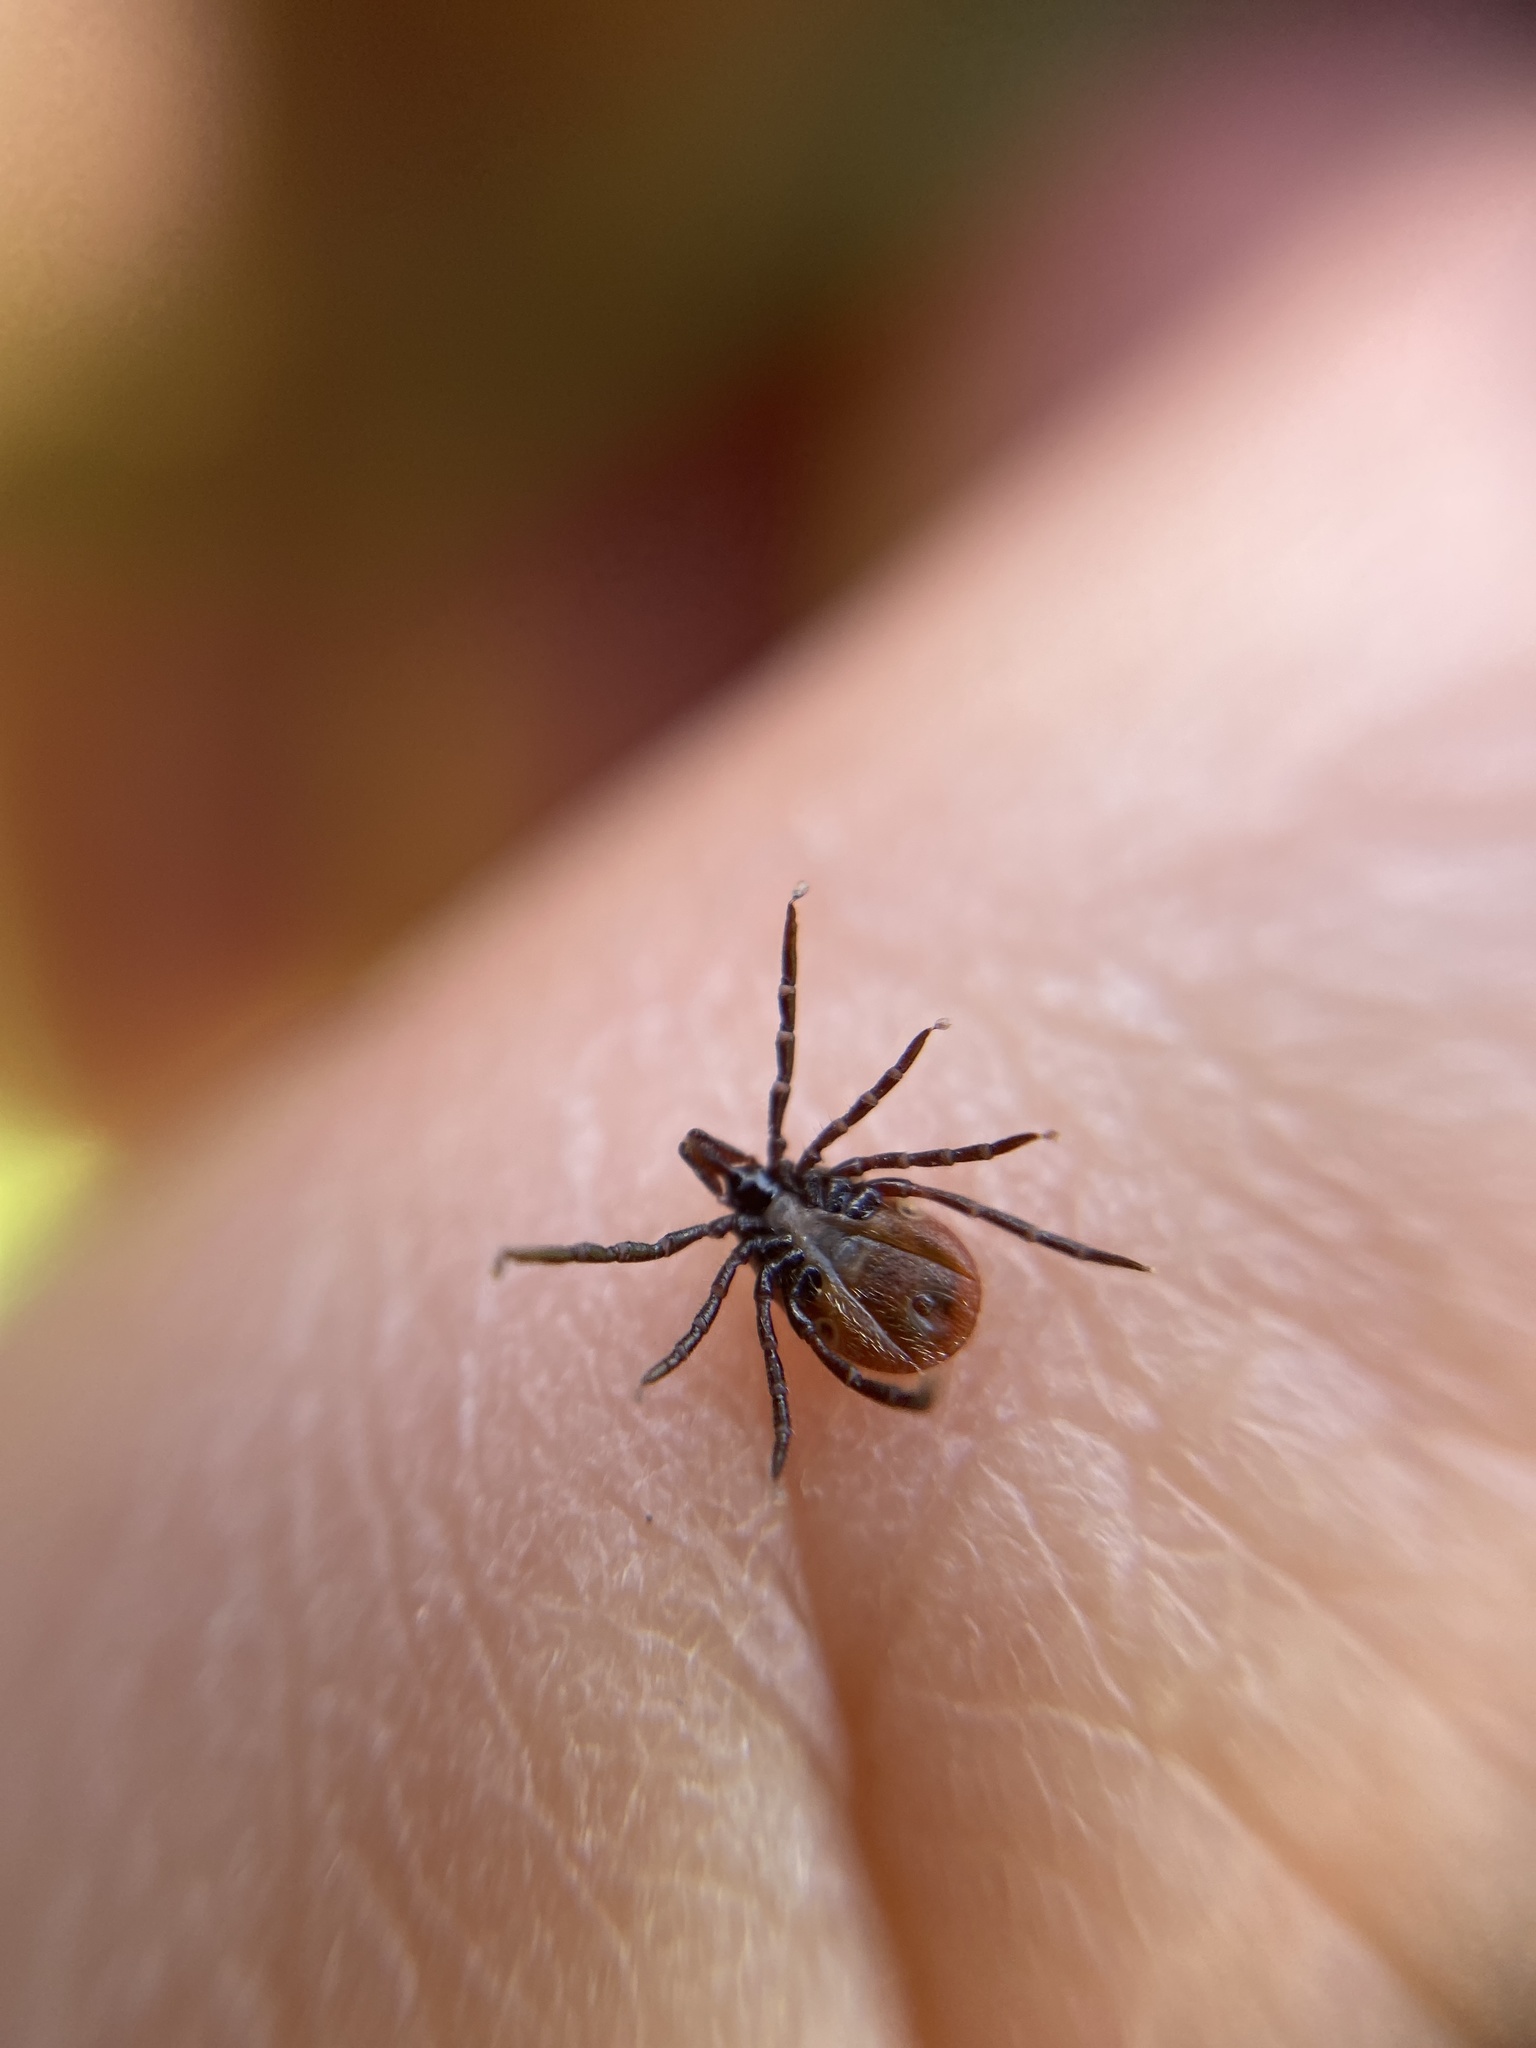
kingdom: Animalia
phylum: Arthropoda
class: Arachnida
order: Ixodida
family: Ixodidae
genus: Ixodes
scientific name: Ixodes ricinus
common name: Castor bean tick
